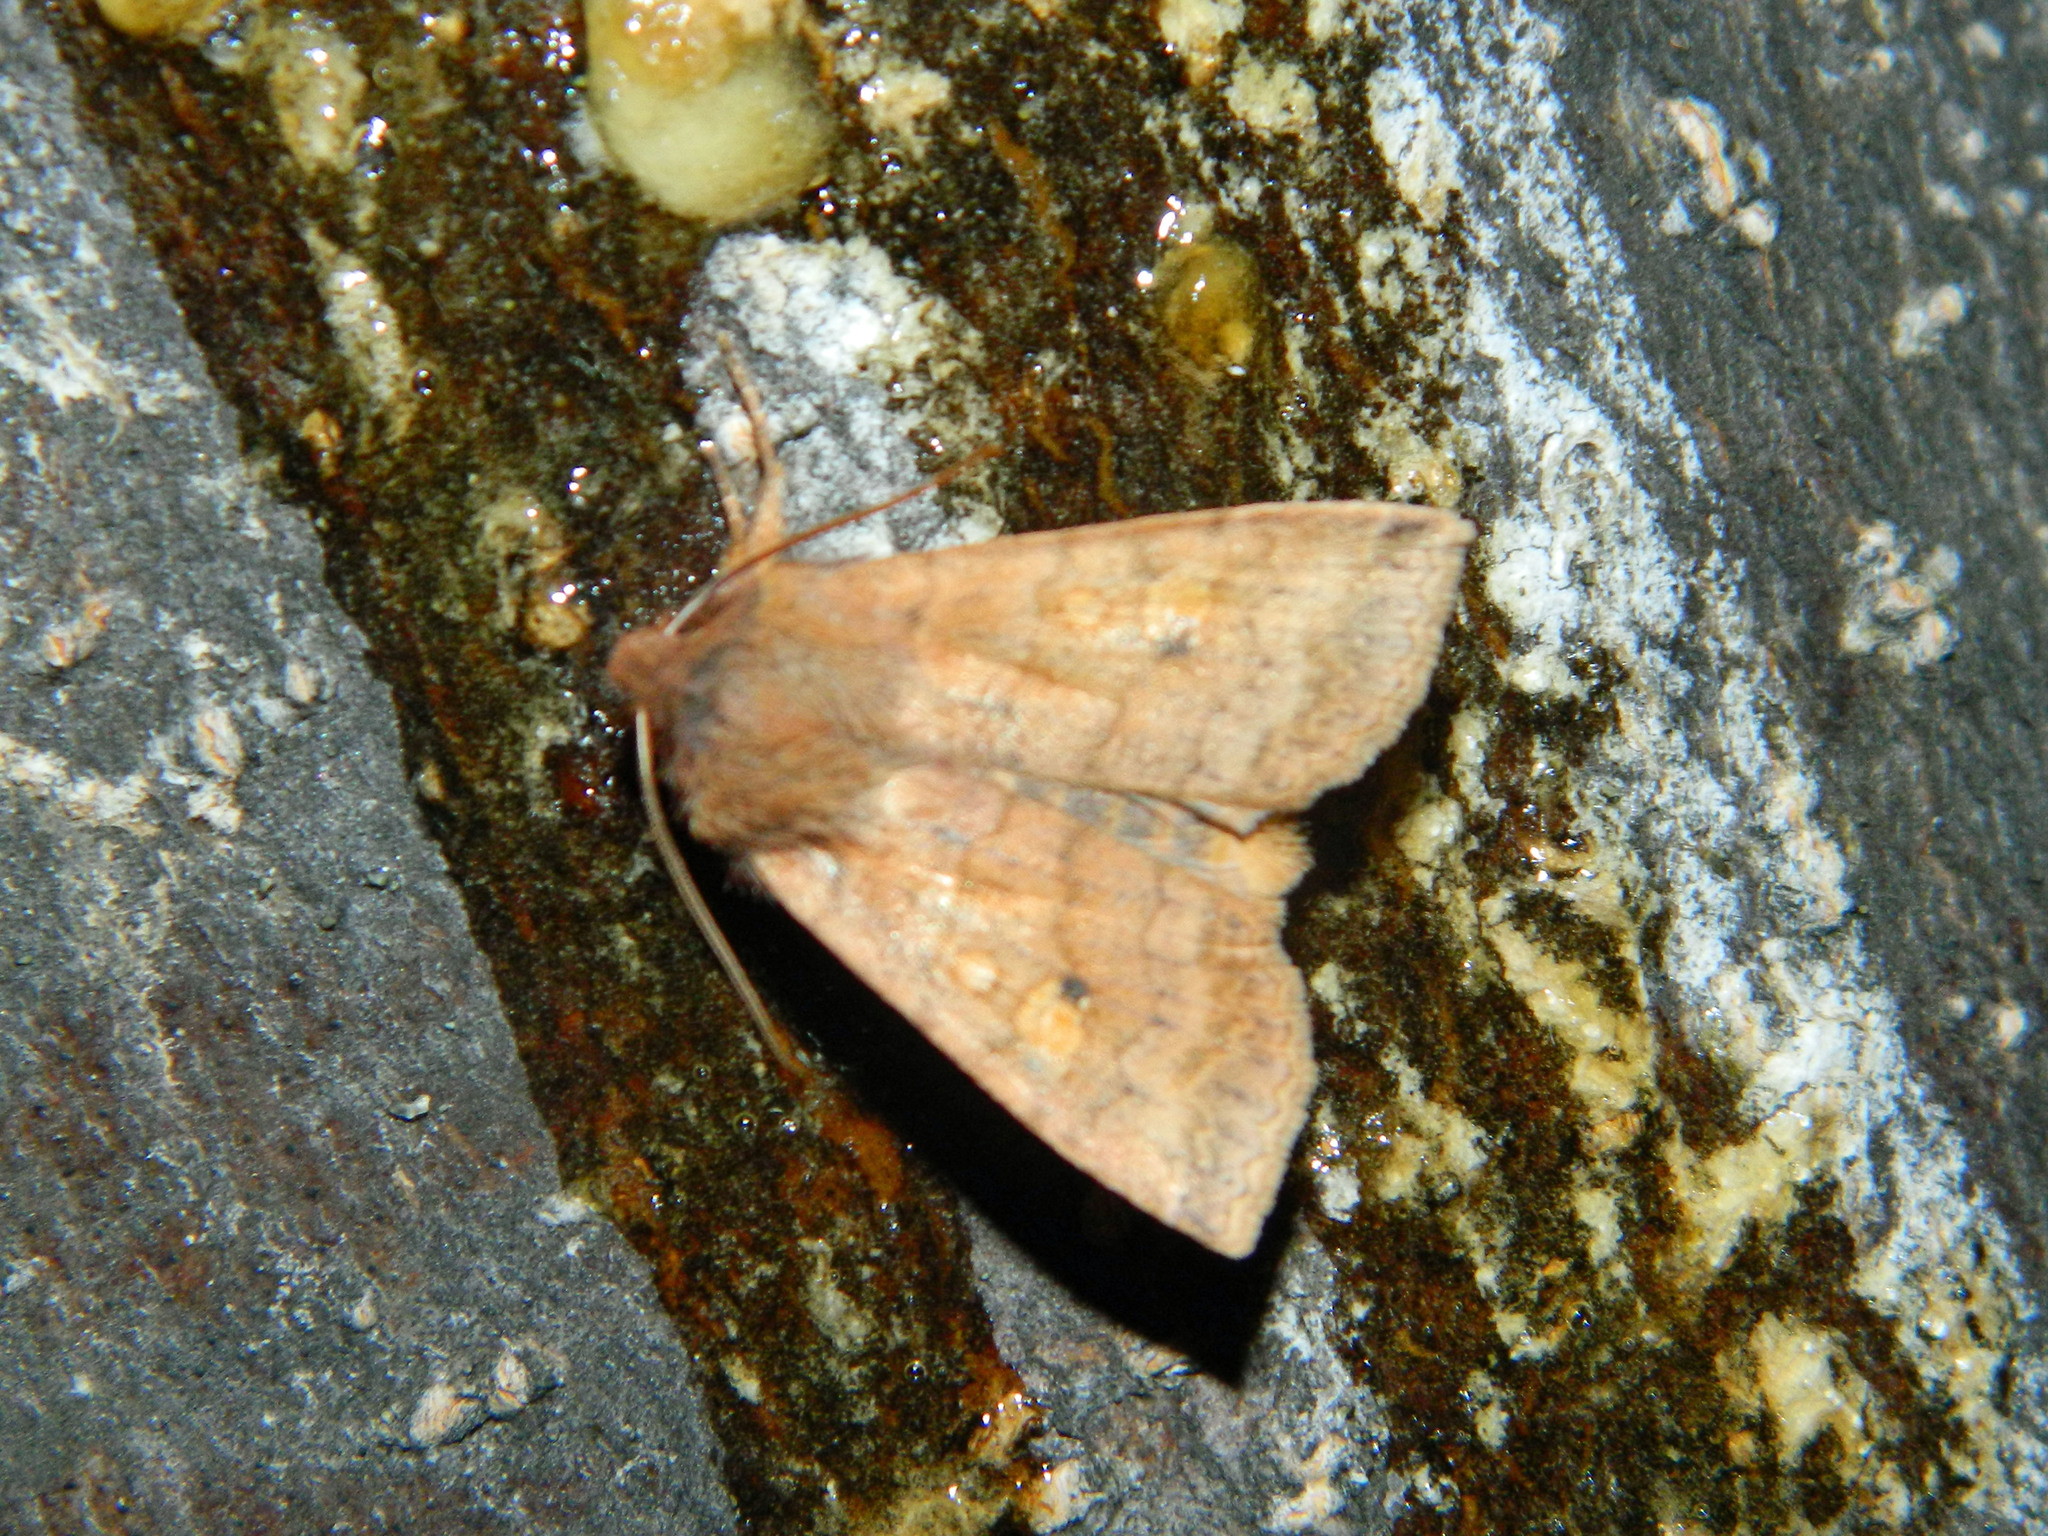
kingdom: Animalia
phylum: Arthropoda
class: Insecta
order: Lepidoptera
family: Noctuidae
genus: Eupsilia
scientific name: Eupsilia tristigmata
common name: Three-spotted sallow
